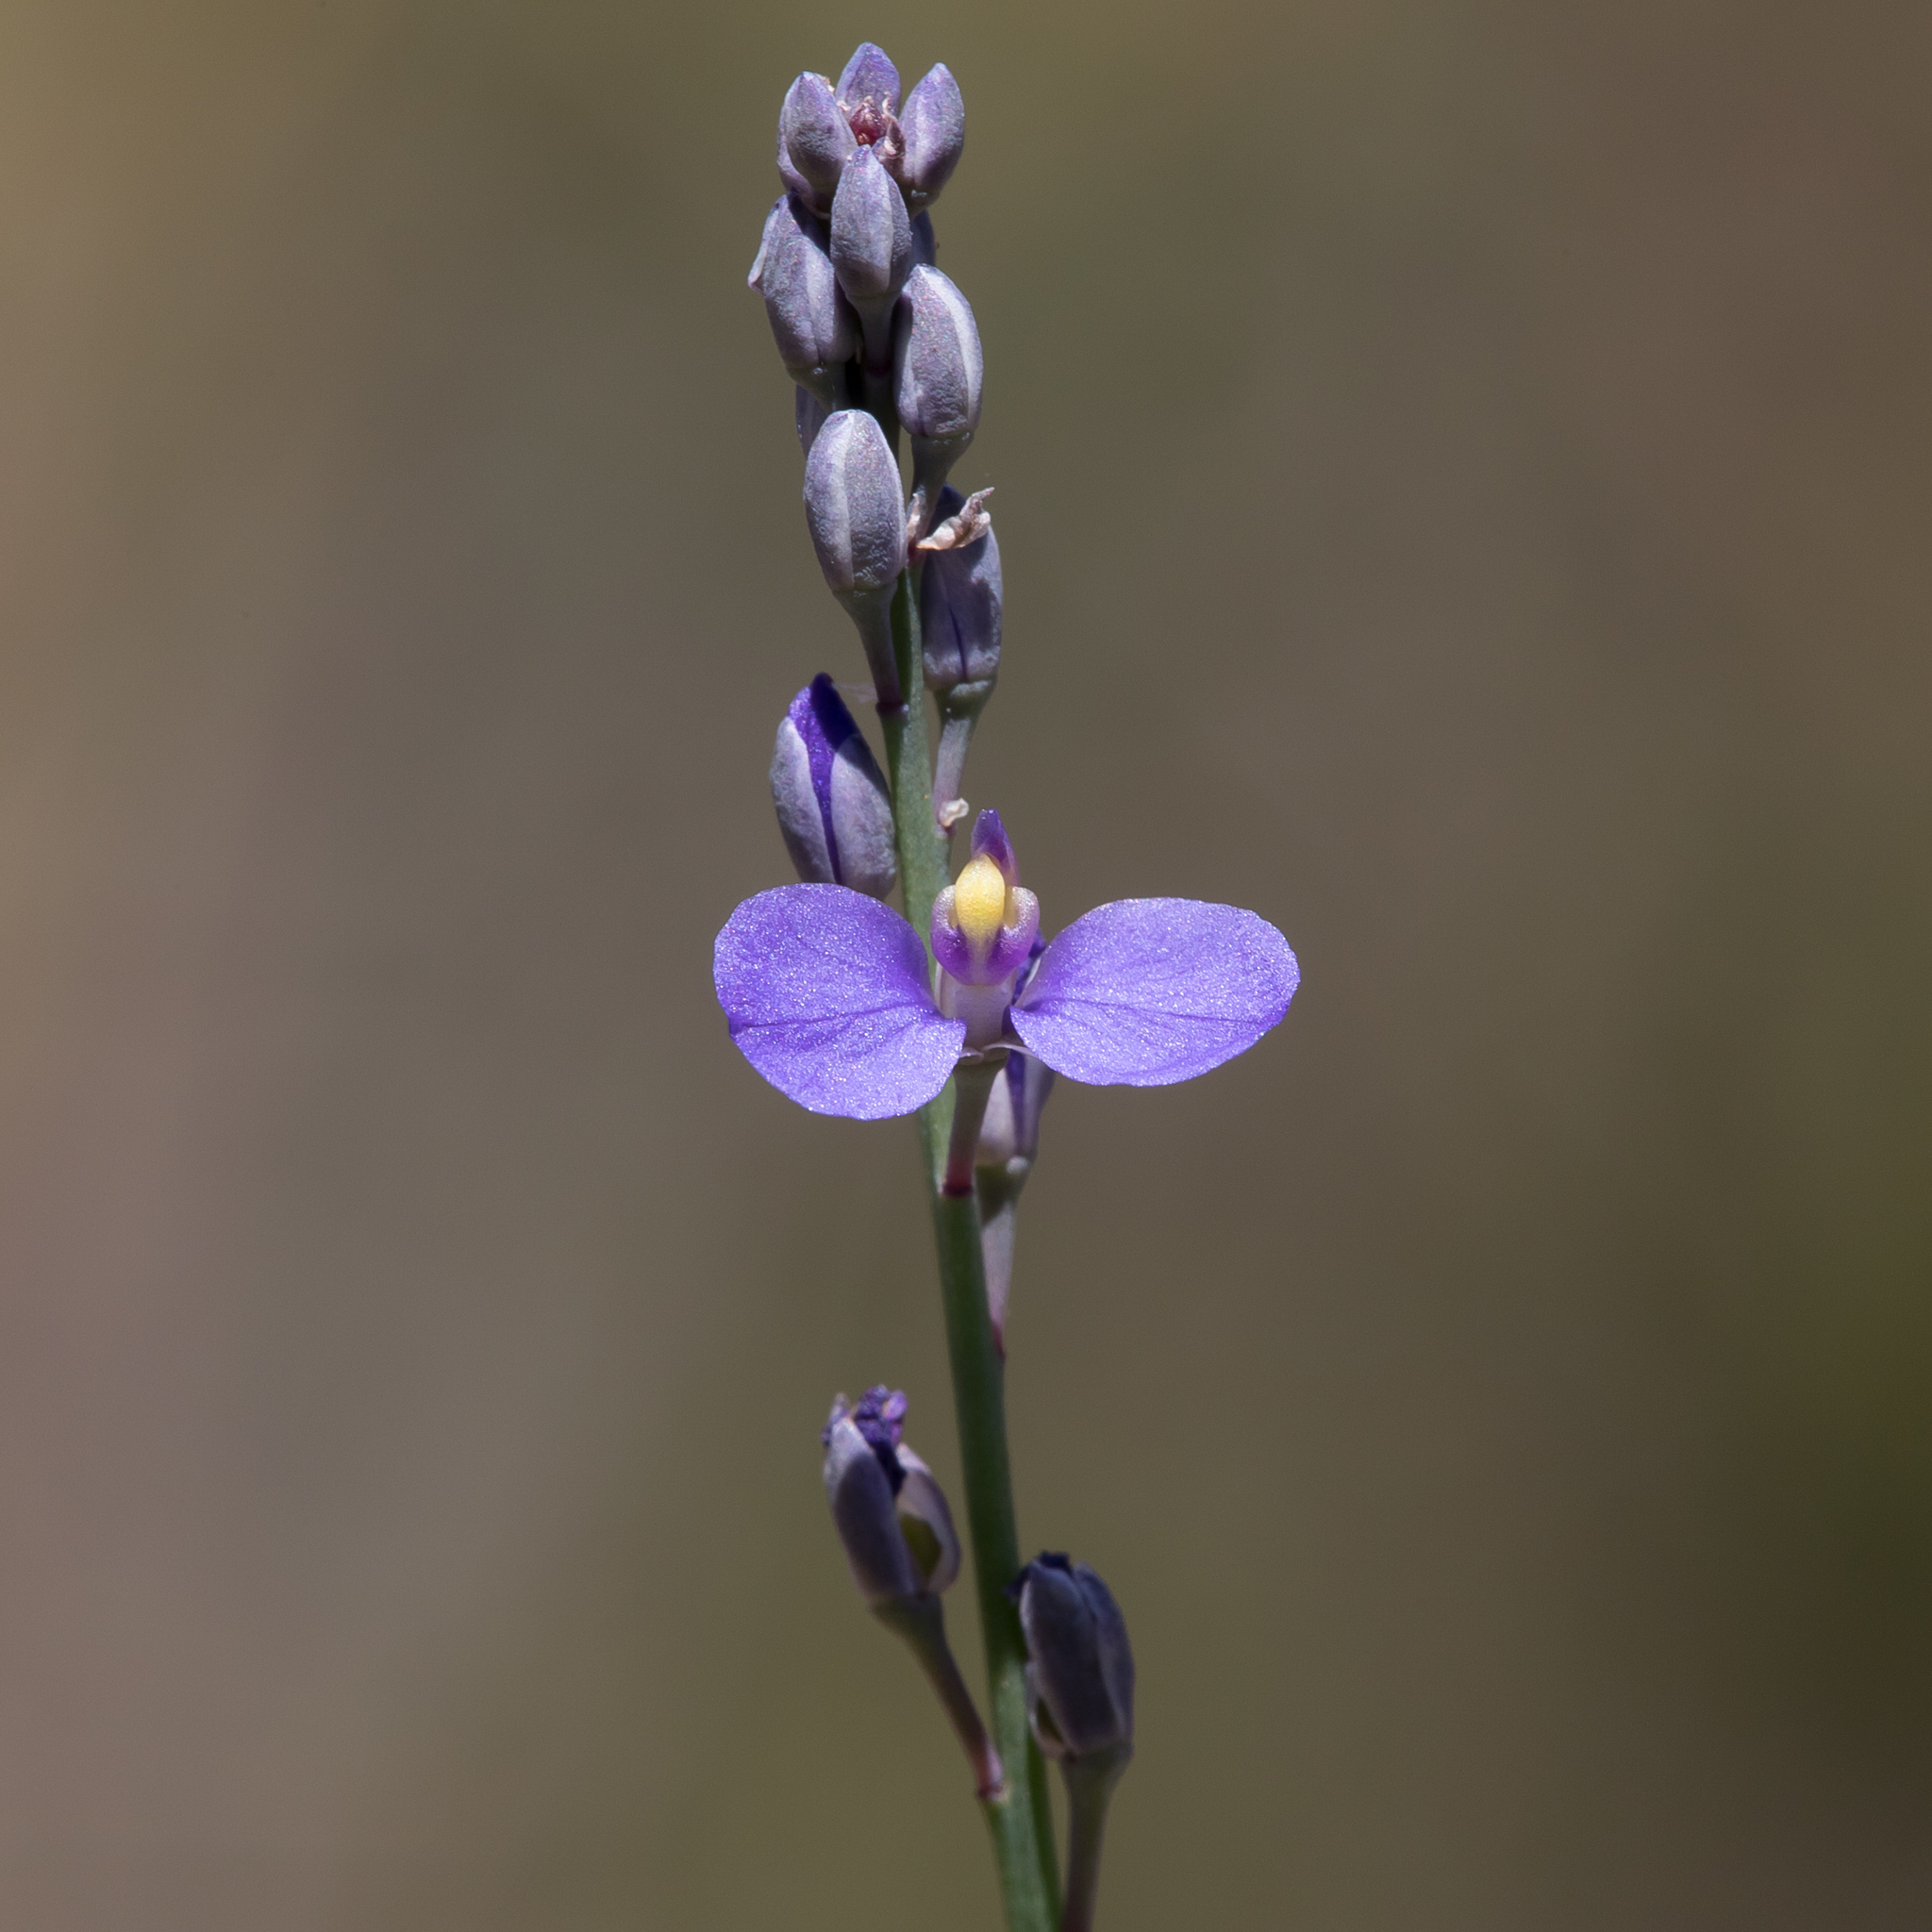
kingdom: Plantae
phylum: Tracheophyta
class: Magnoliopsida
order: Fabales
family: Polygalaceae
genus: Comesperma
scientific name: Comesperma calymega
